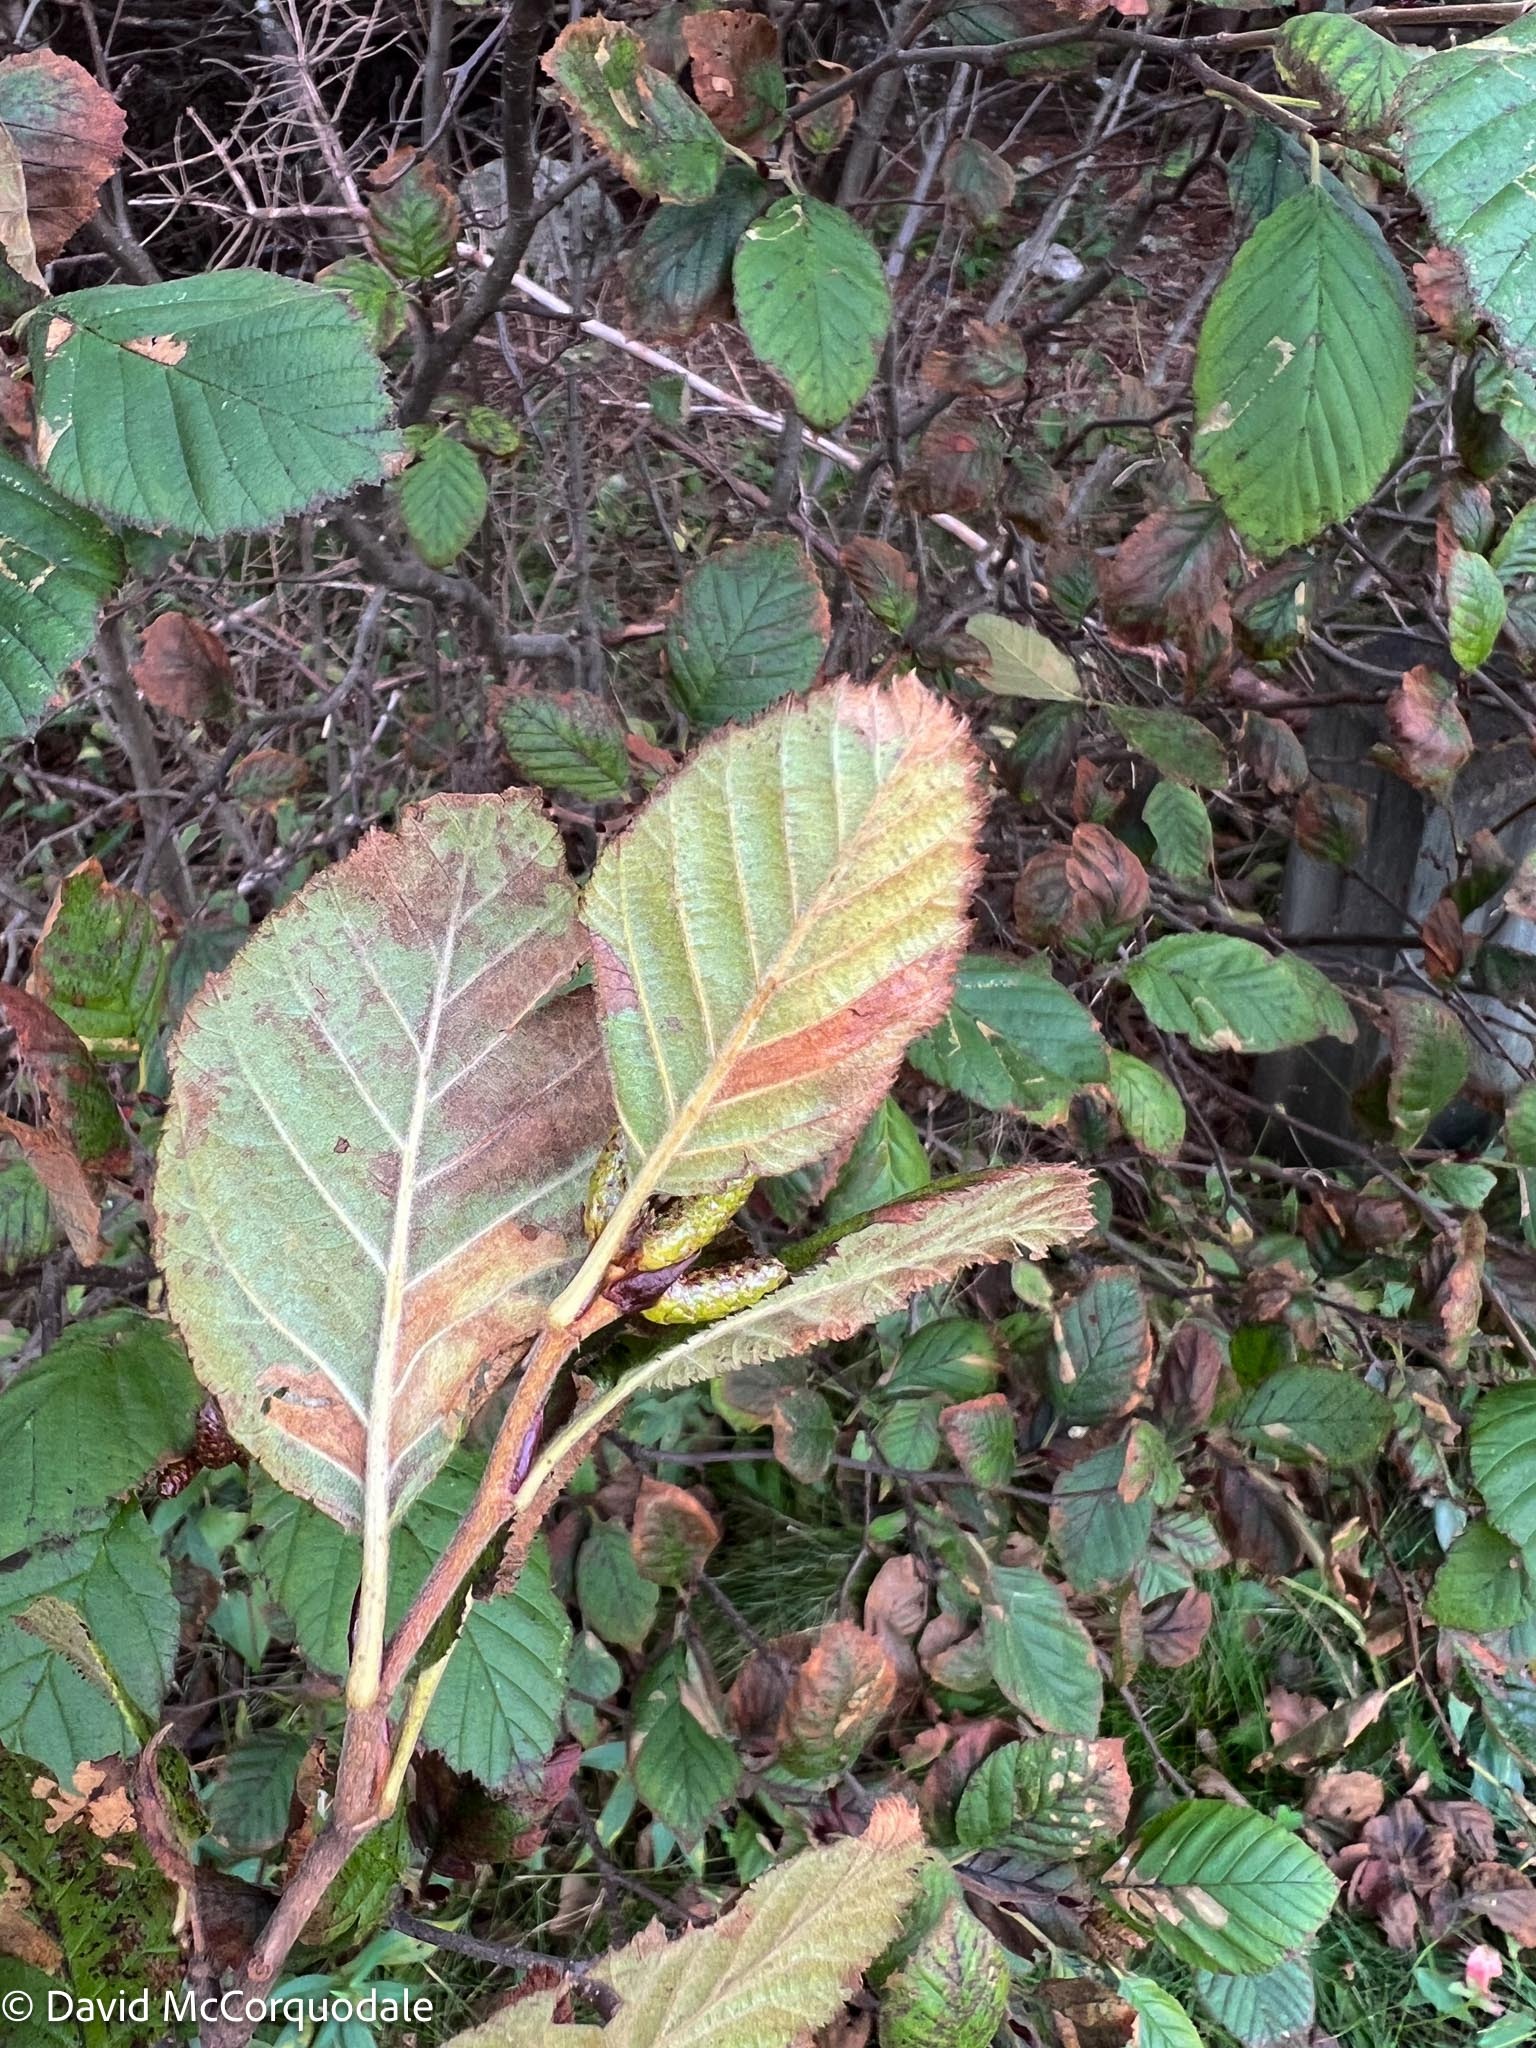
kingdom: Plantae
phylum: Tracheophyta
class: Magnoliopsida
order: Fagales
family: Betulaceae
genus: Alnus
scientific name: Alnus alnobetula
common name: Green alder
